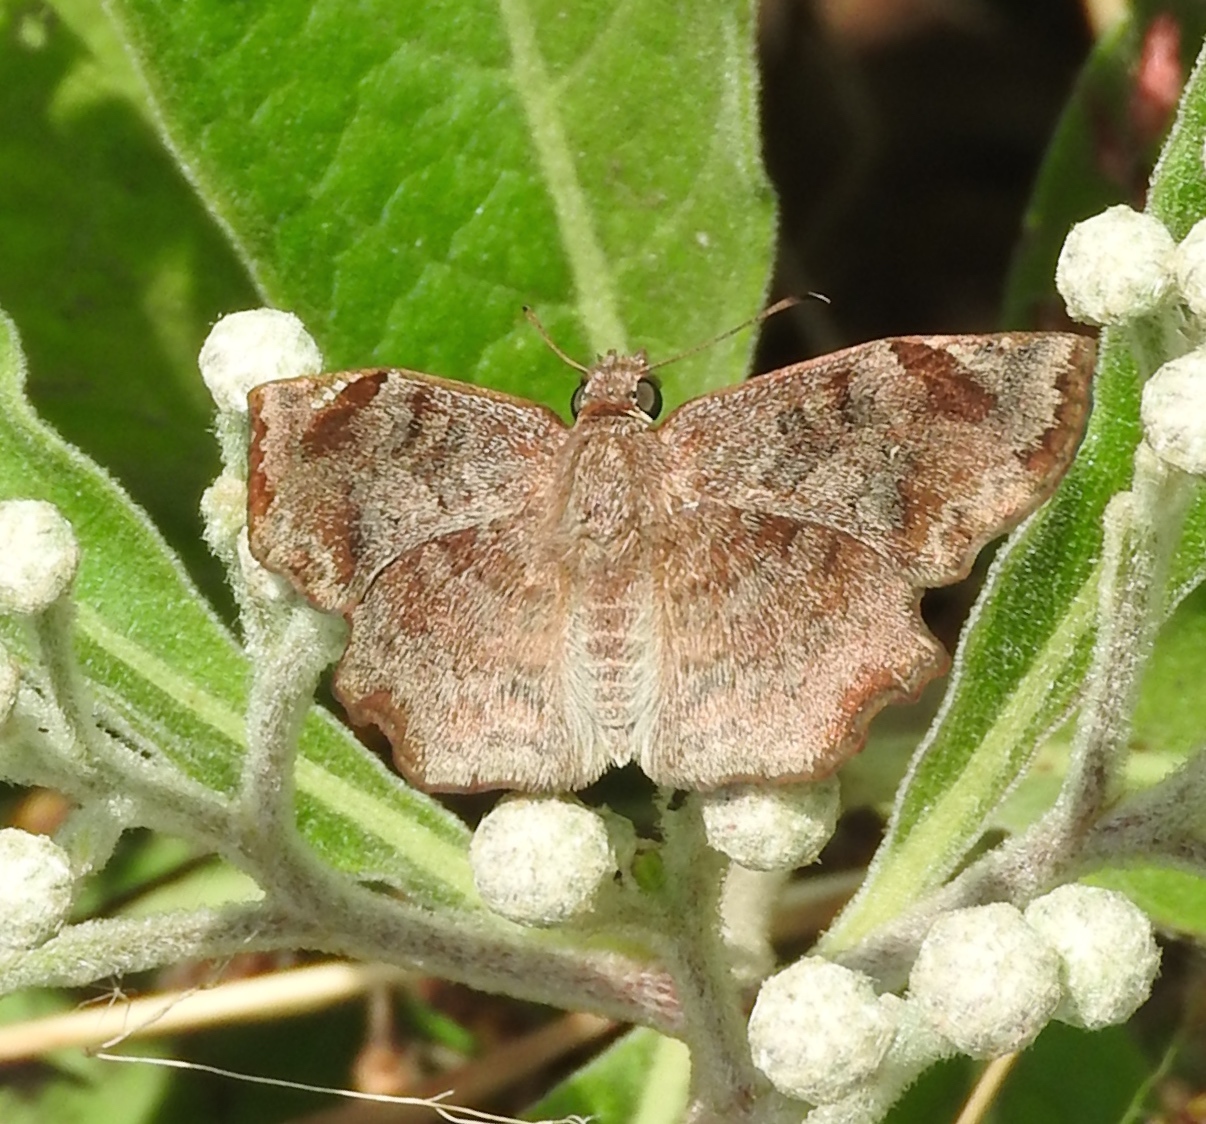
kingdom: Animalia
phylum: Arthropoda
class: Insecta
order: Lepidoptera
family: Hesperiidae
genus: Antigonus
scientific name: Antigonus erosus
